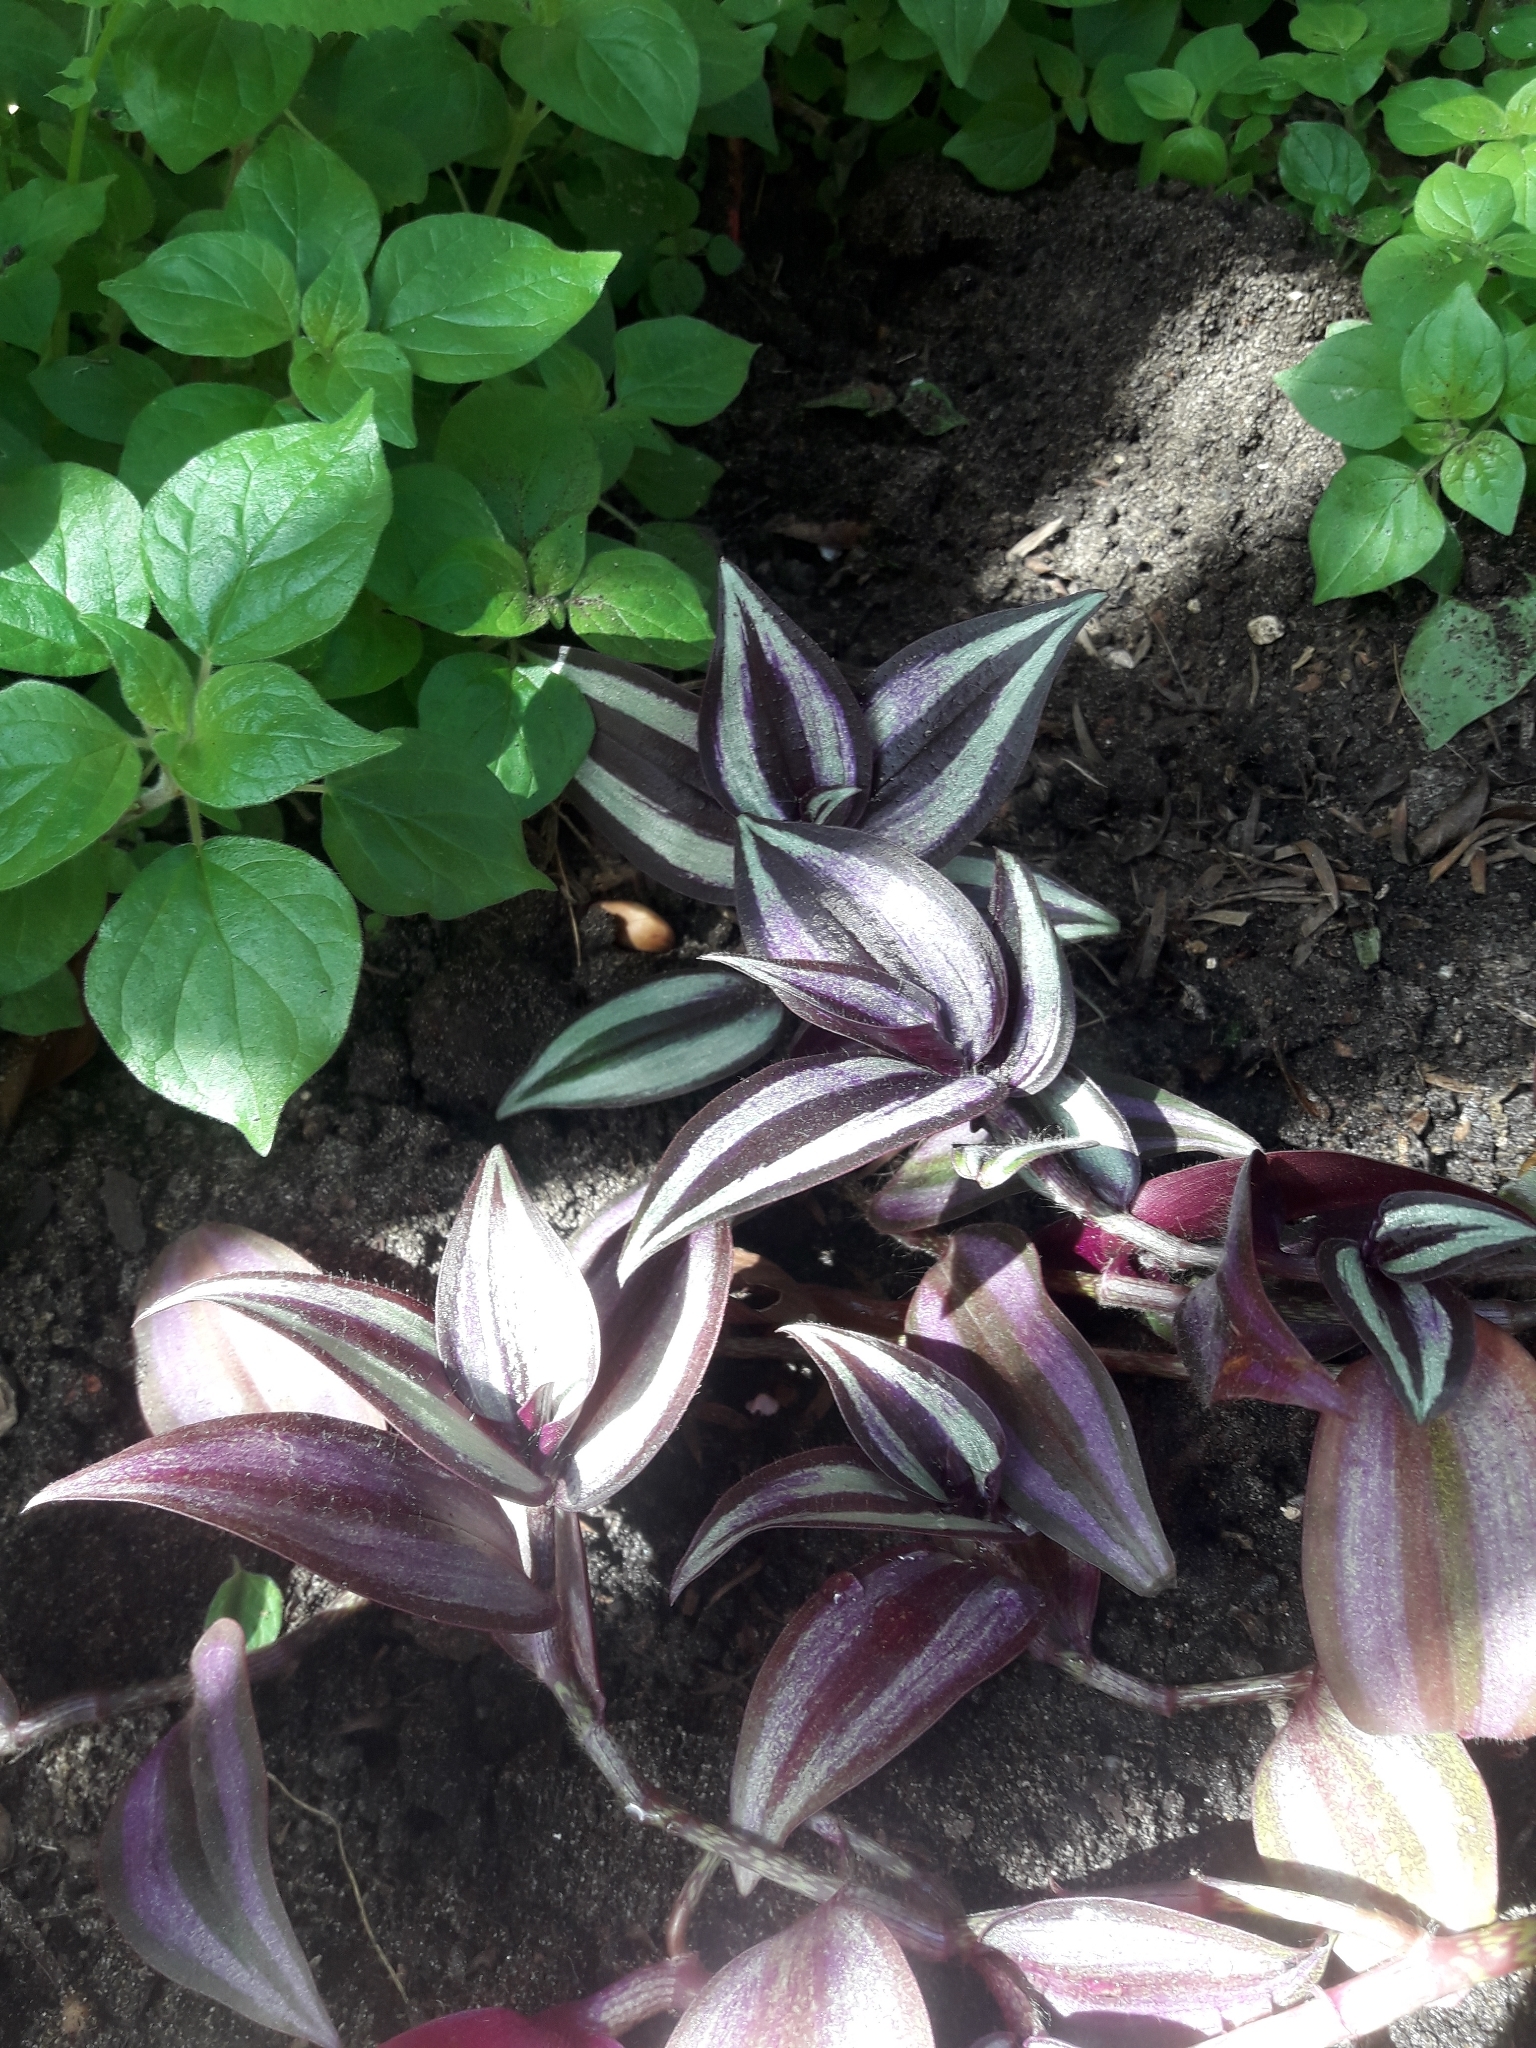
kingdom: Plantae
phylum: Tracheophyta
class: Liliopsida
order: Commelinales
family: Commelinaceae
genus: Tradescantia
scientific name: Tradescantia zebrina
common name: Inchplant
